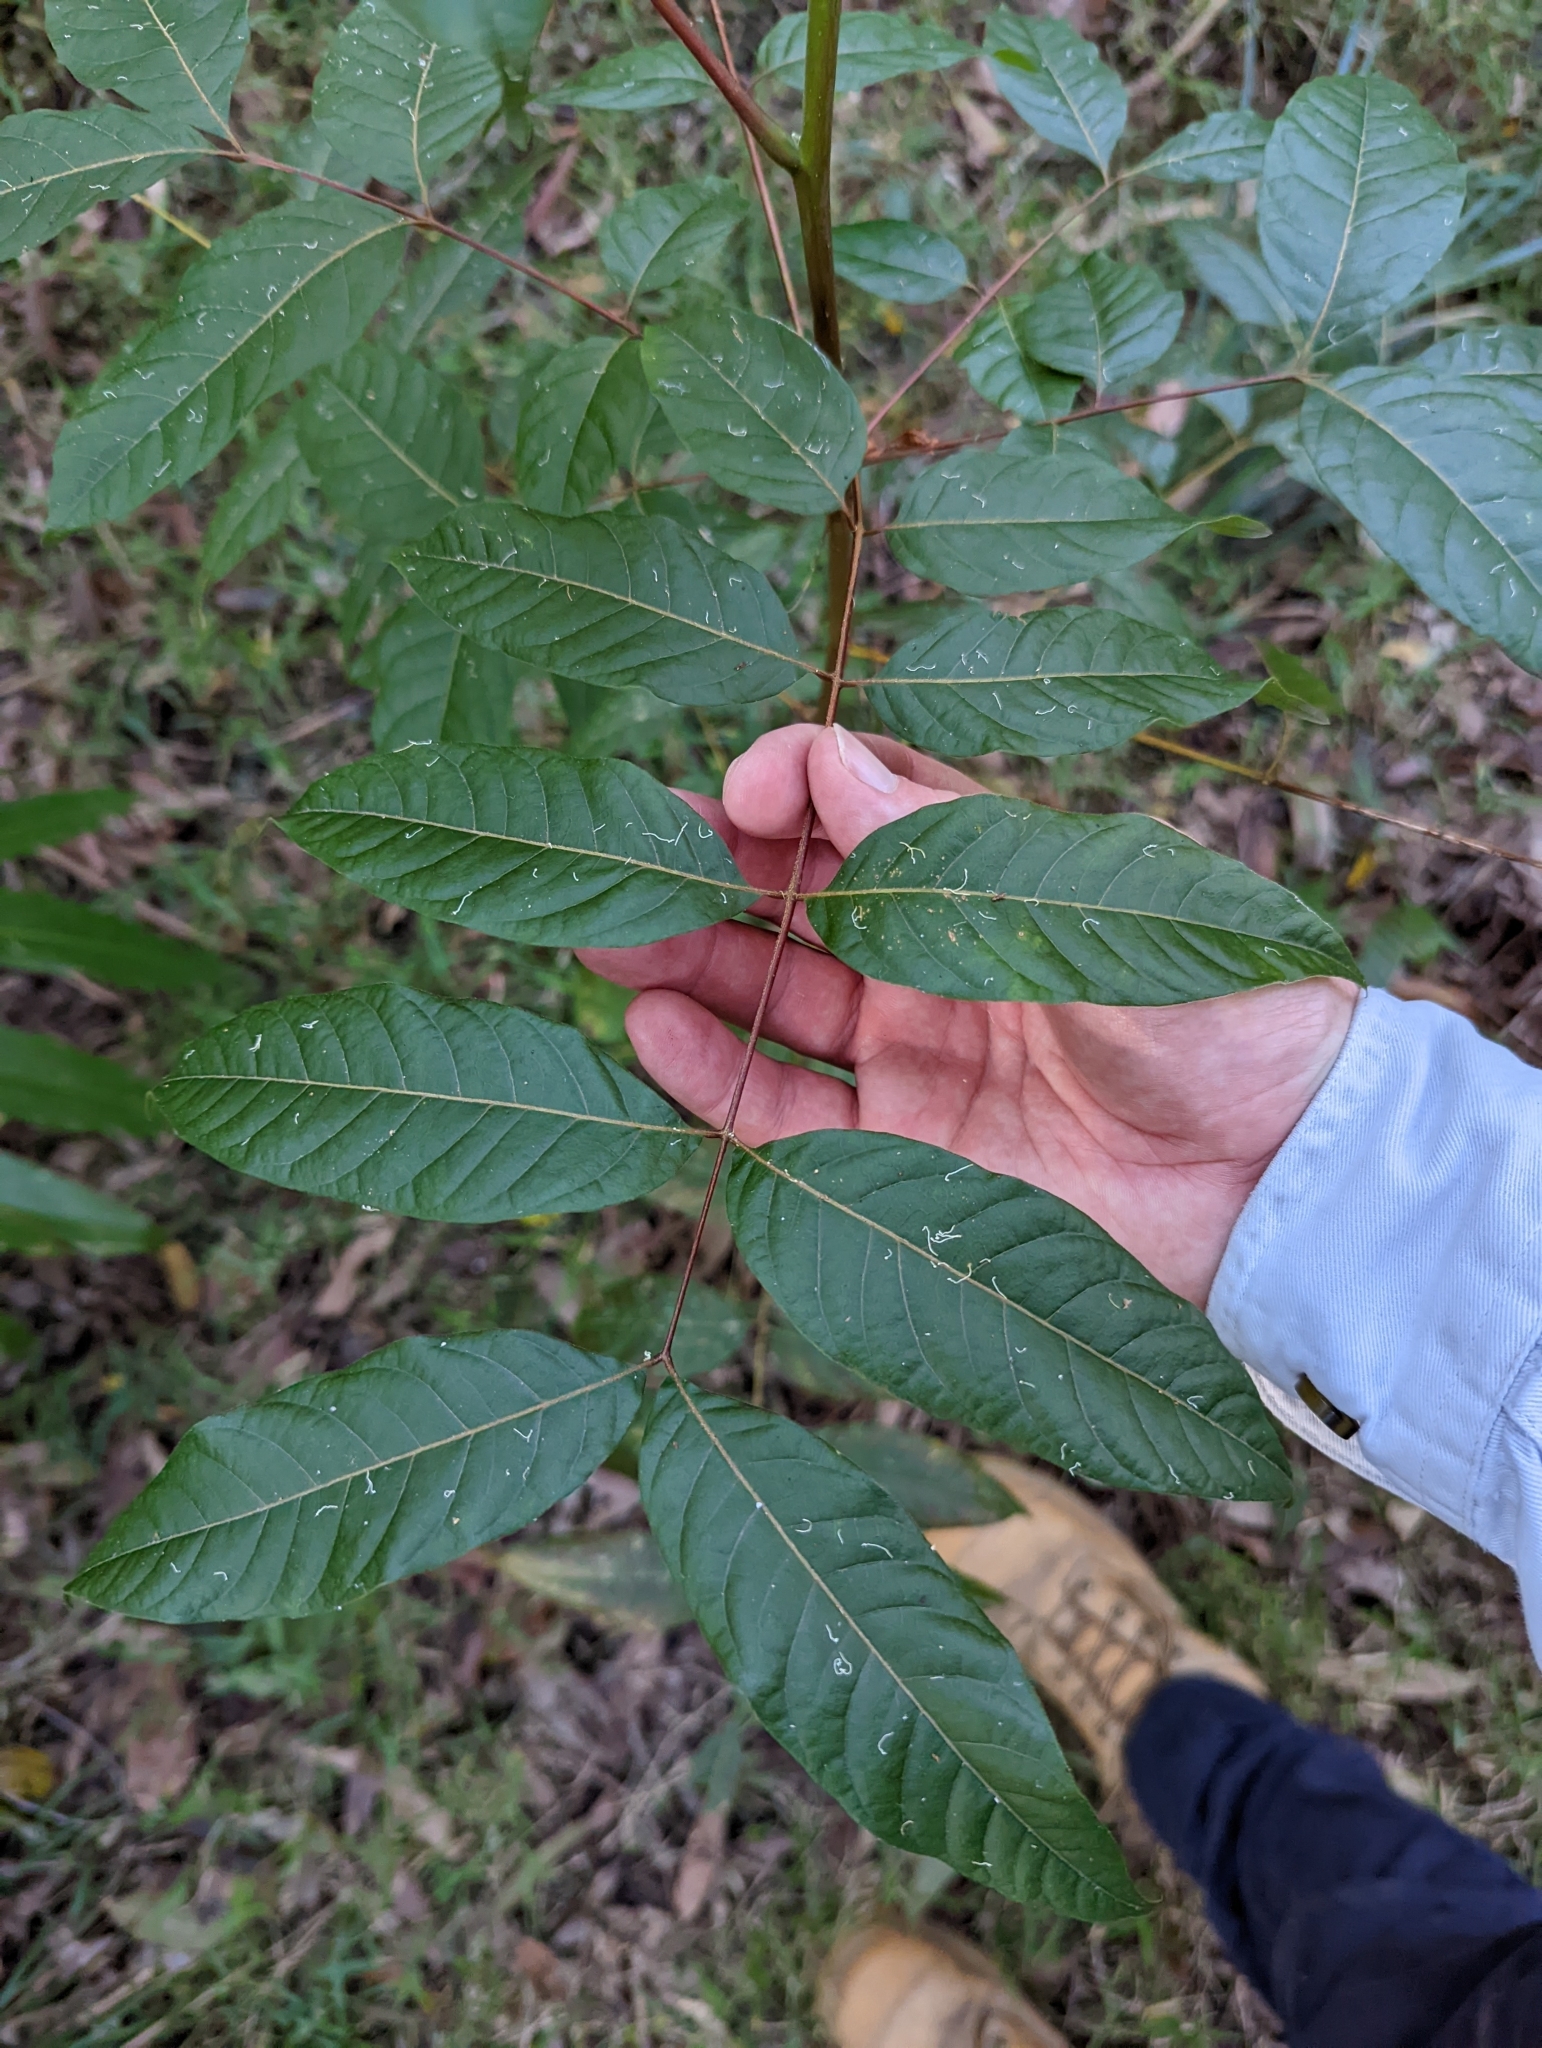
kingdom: Plantae
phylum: Tracheophyta
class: Magnoliopsida
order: Sapindales
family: Meliaceae
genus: Toona
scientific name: Toona ciliata
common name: Australian redcedar
